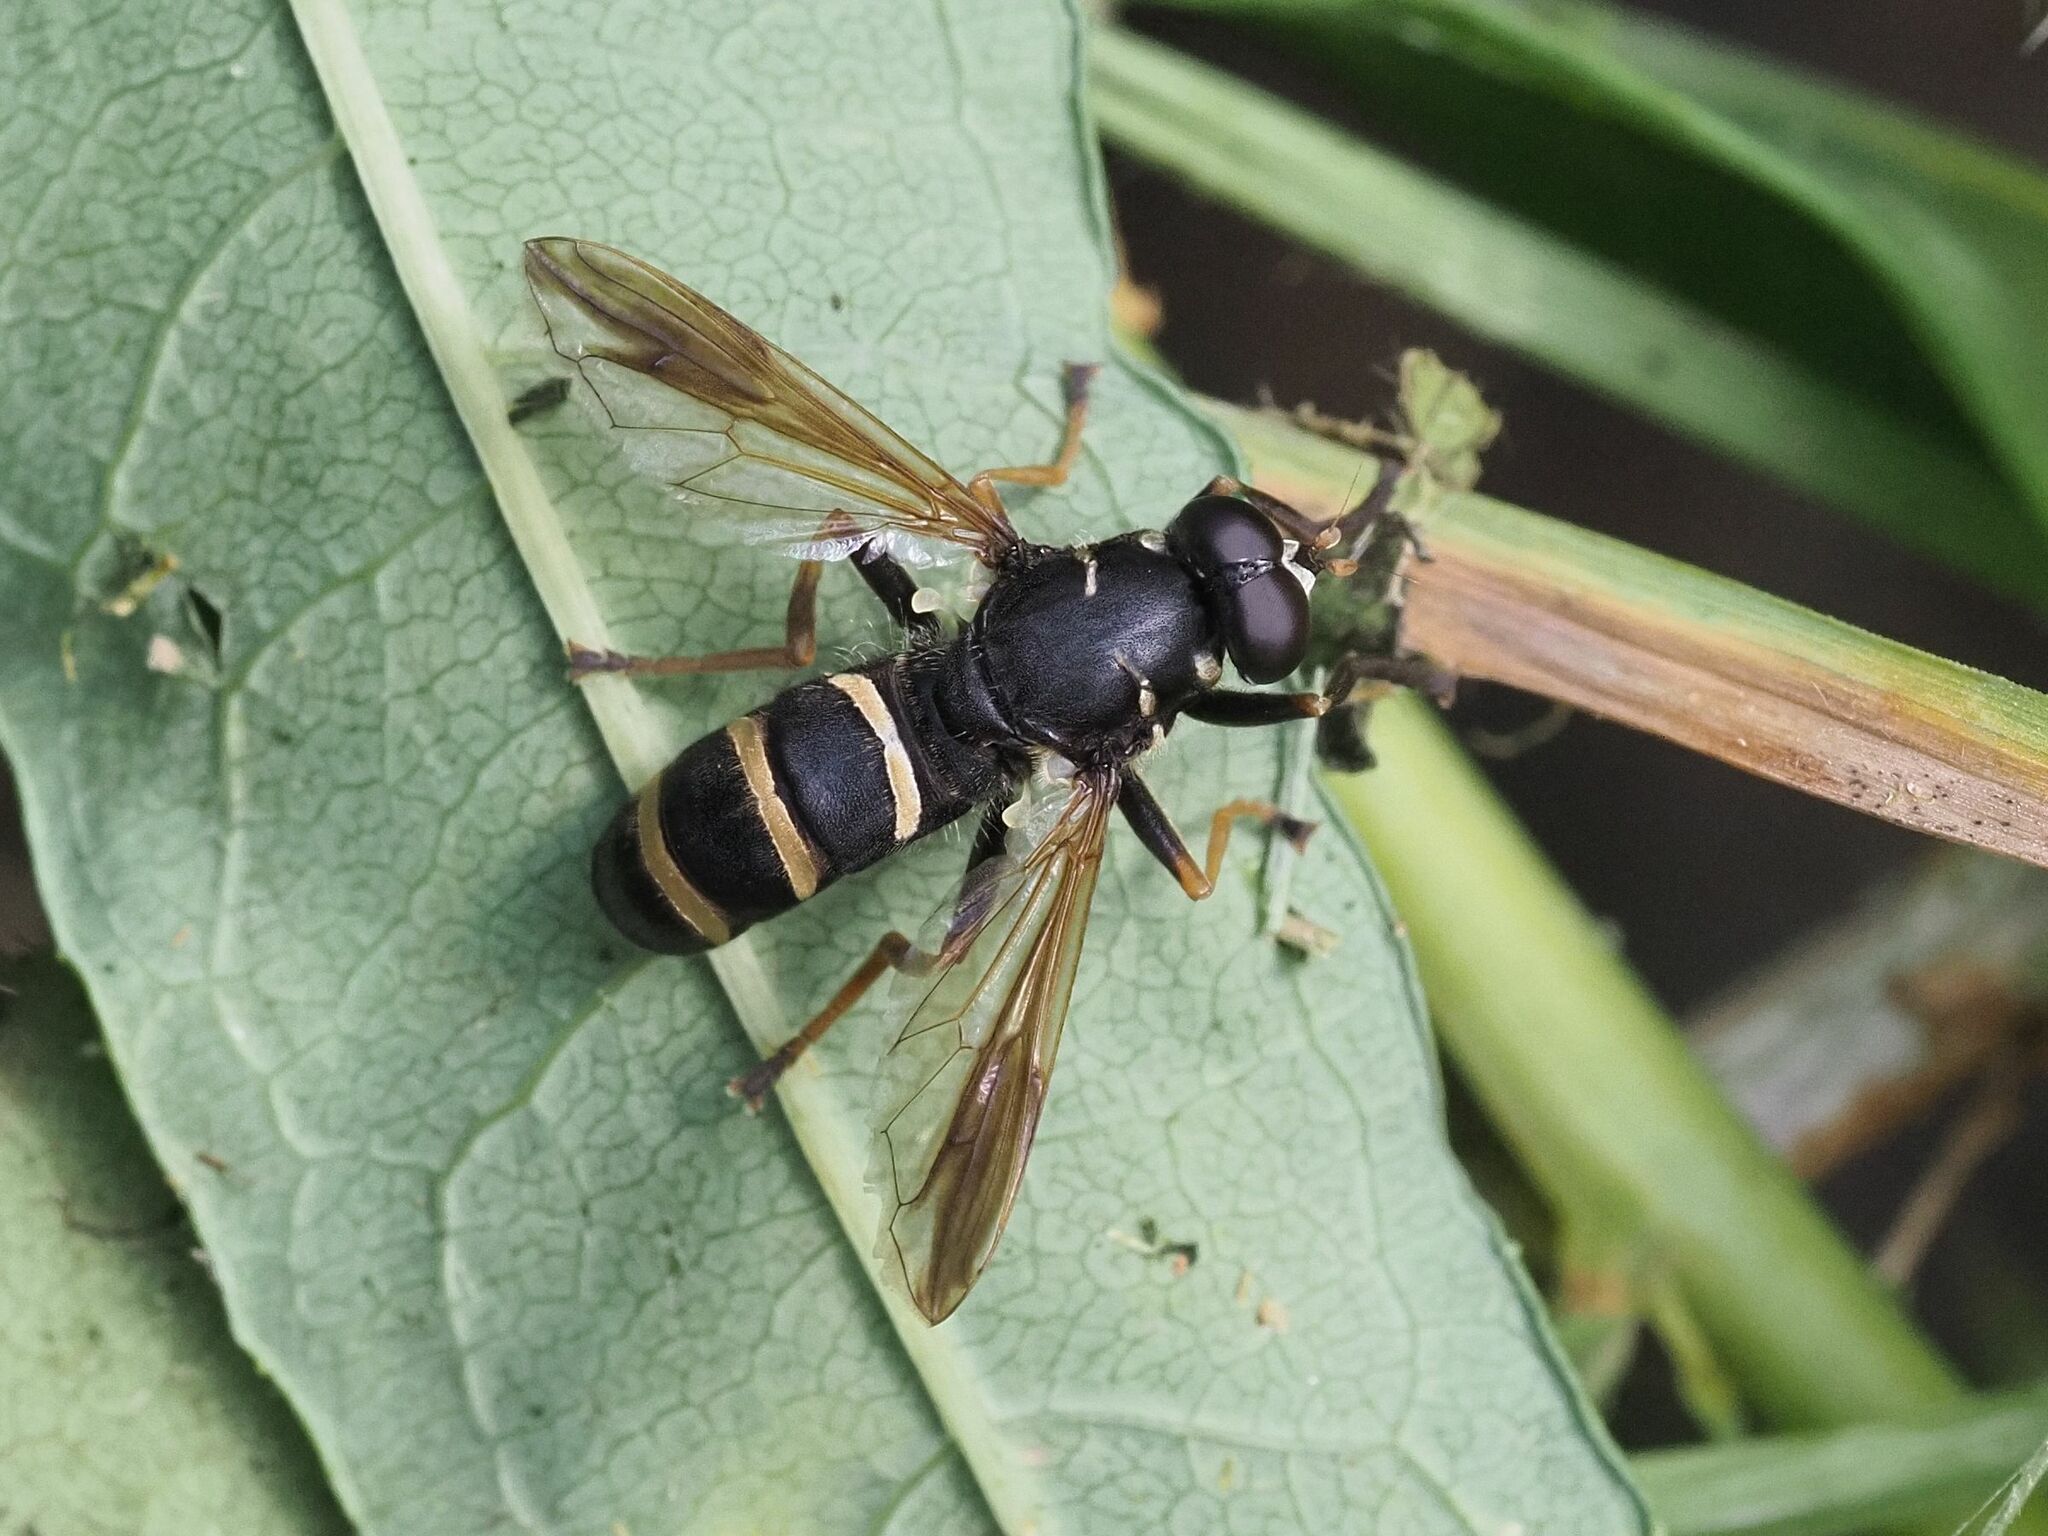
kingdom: Animalia
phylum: Arthropoda
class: Insecta
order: Diptera
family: Syrphidae
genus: Temnostoma
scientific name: Temnostoma bombylans
